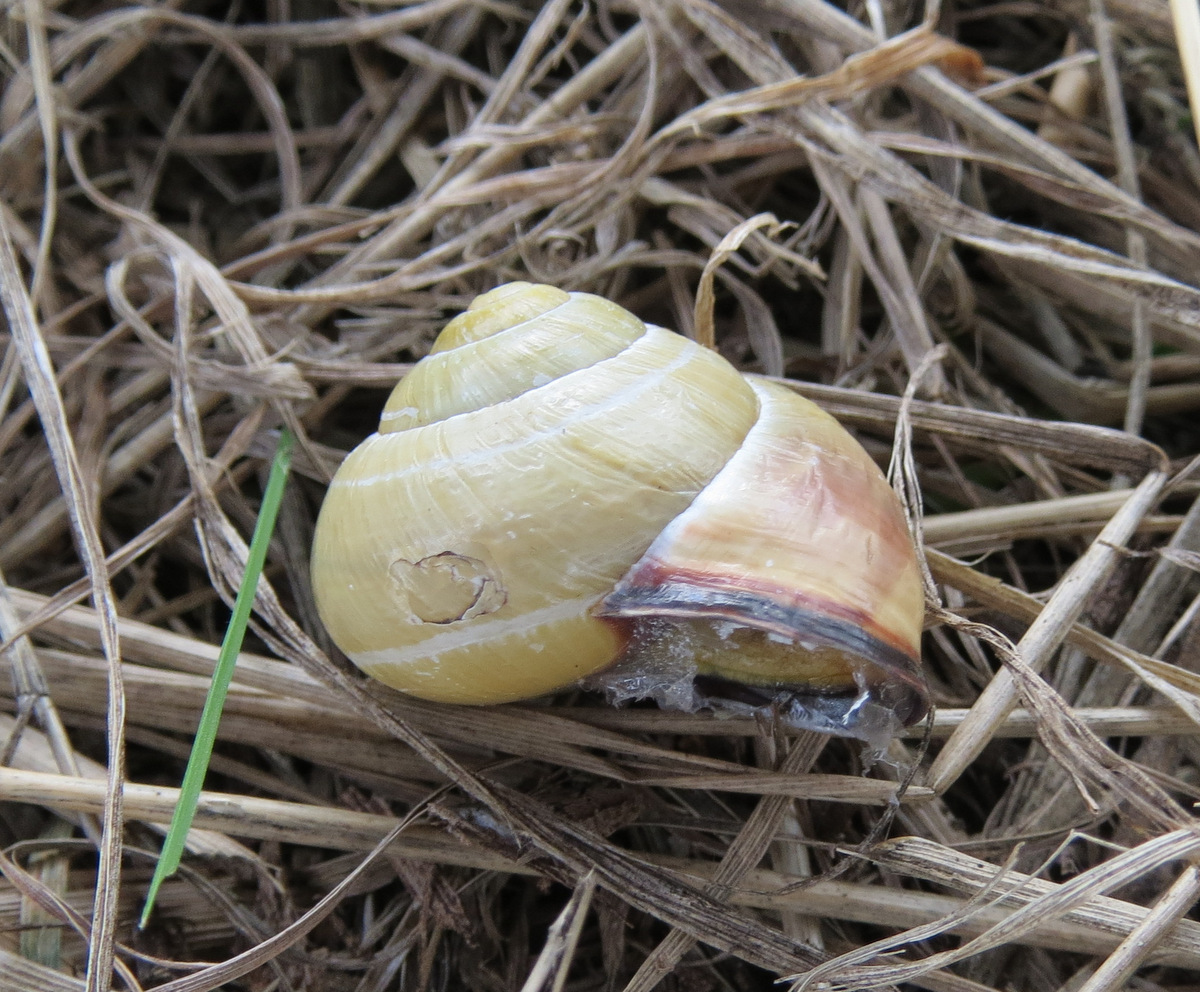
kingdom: Animalia
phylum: Mollusca
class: Gastropoda
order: Stylommatophora
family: Helicidae
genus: Cepaea
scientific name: Cepaea nemoralis
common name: Grovesnail
